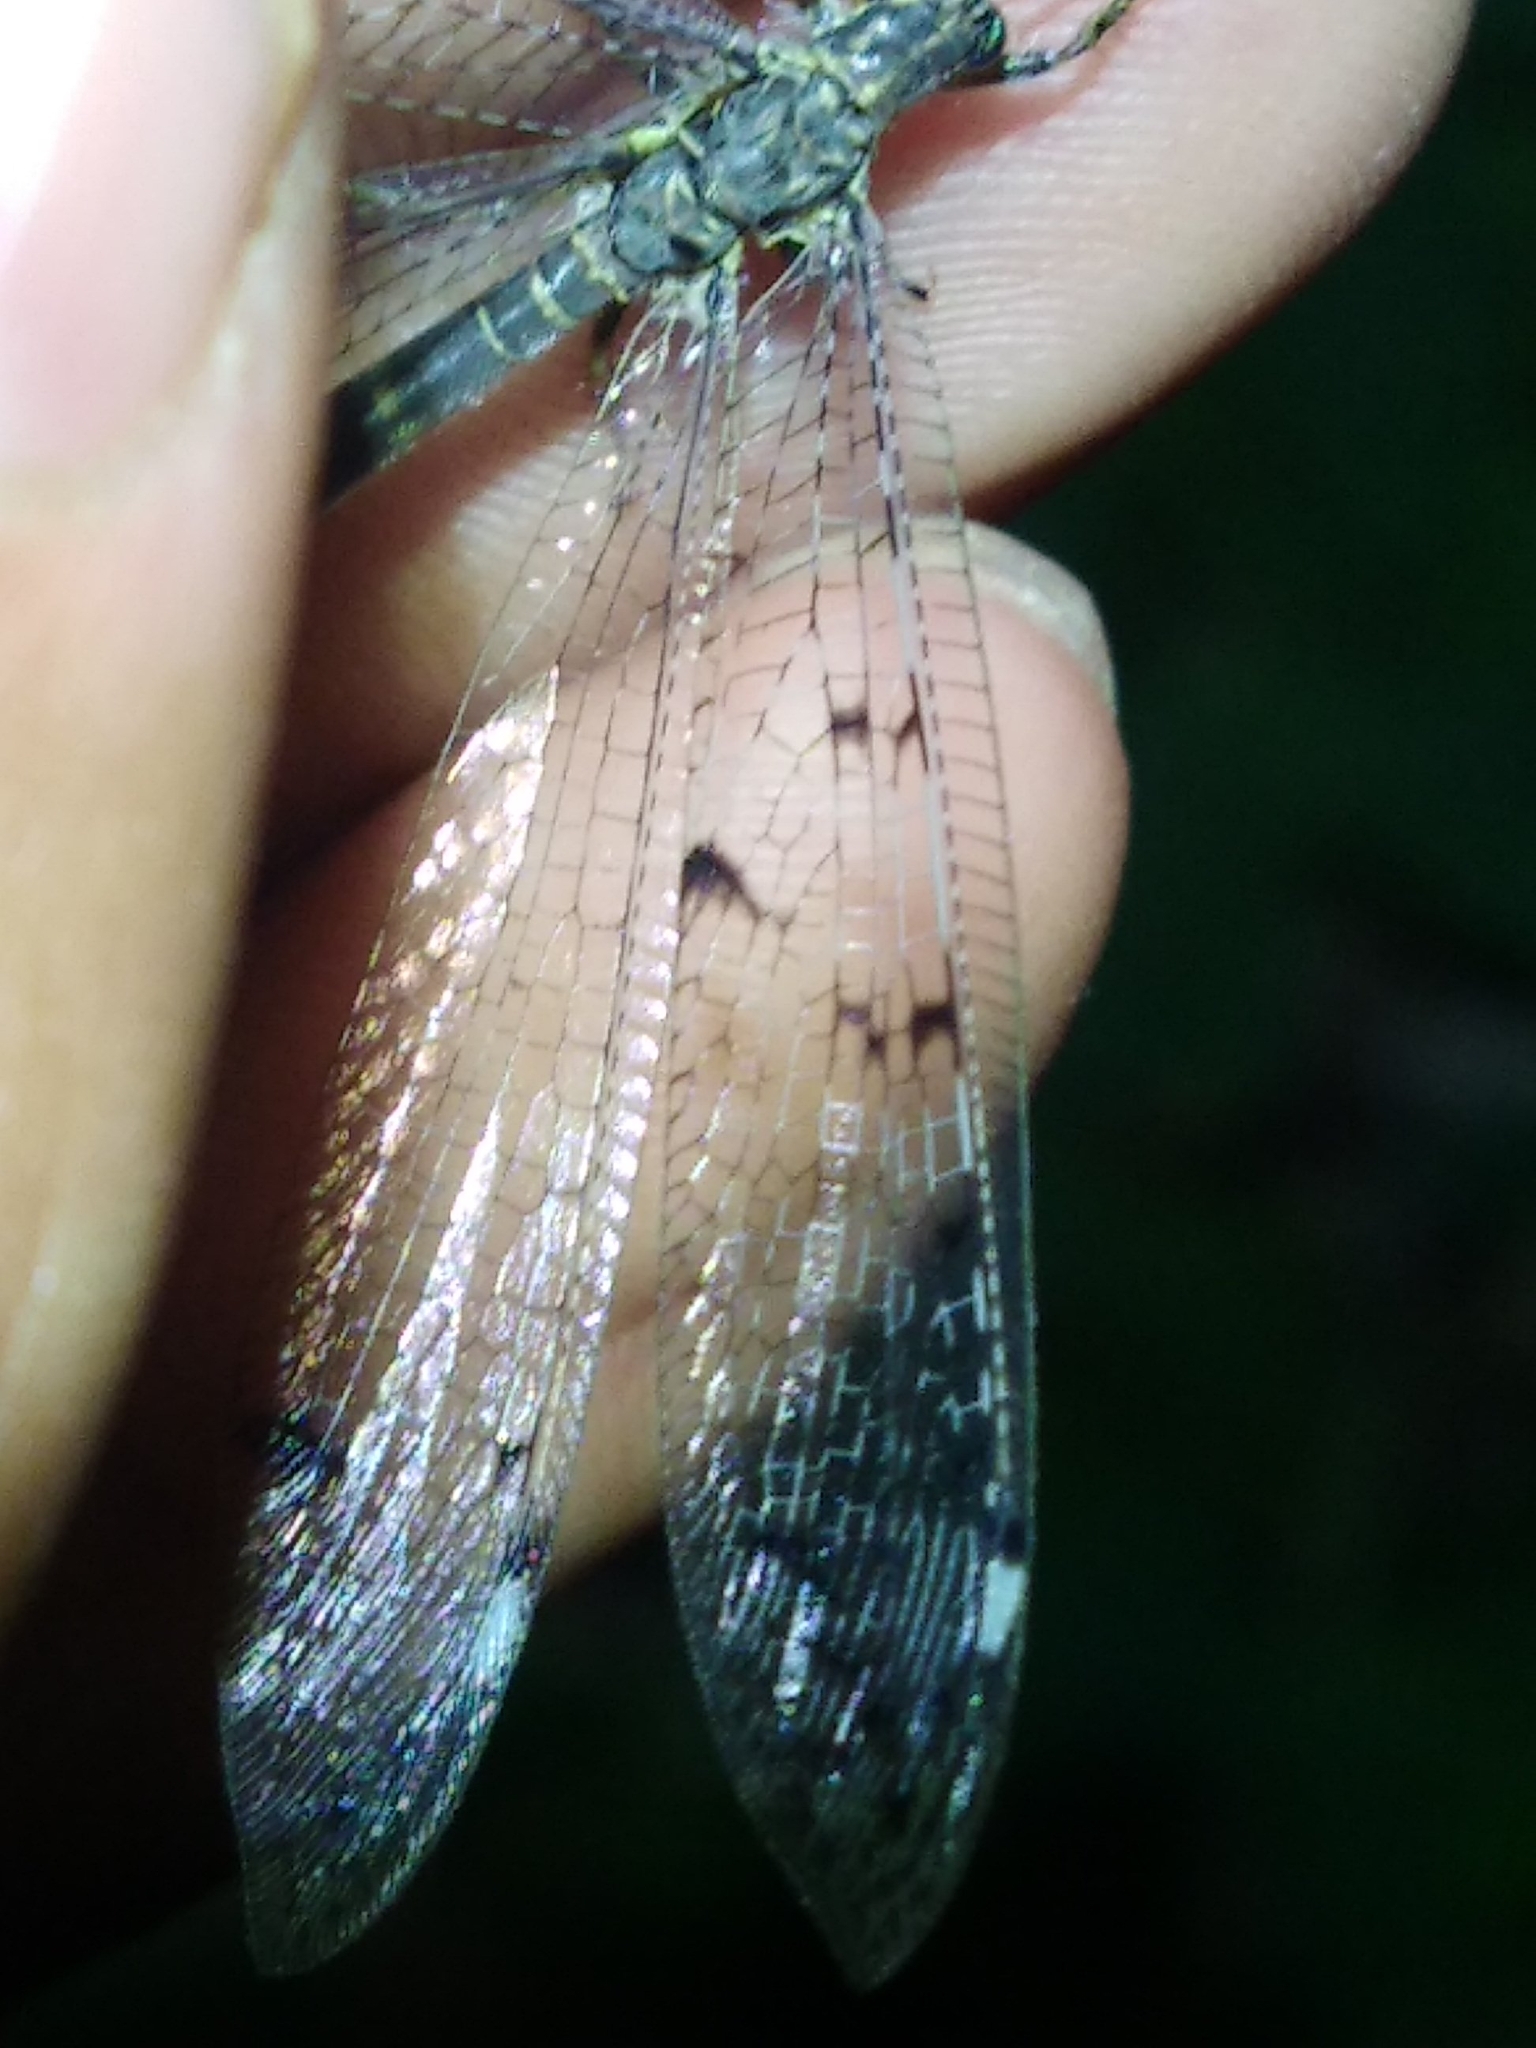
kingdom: Animalia
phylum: Arthropoda
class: Insecta
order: Neuroptera
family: Myrmeleontidae
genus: Distoleon
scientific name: Distoleon tetragrammicus
